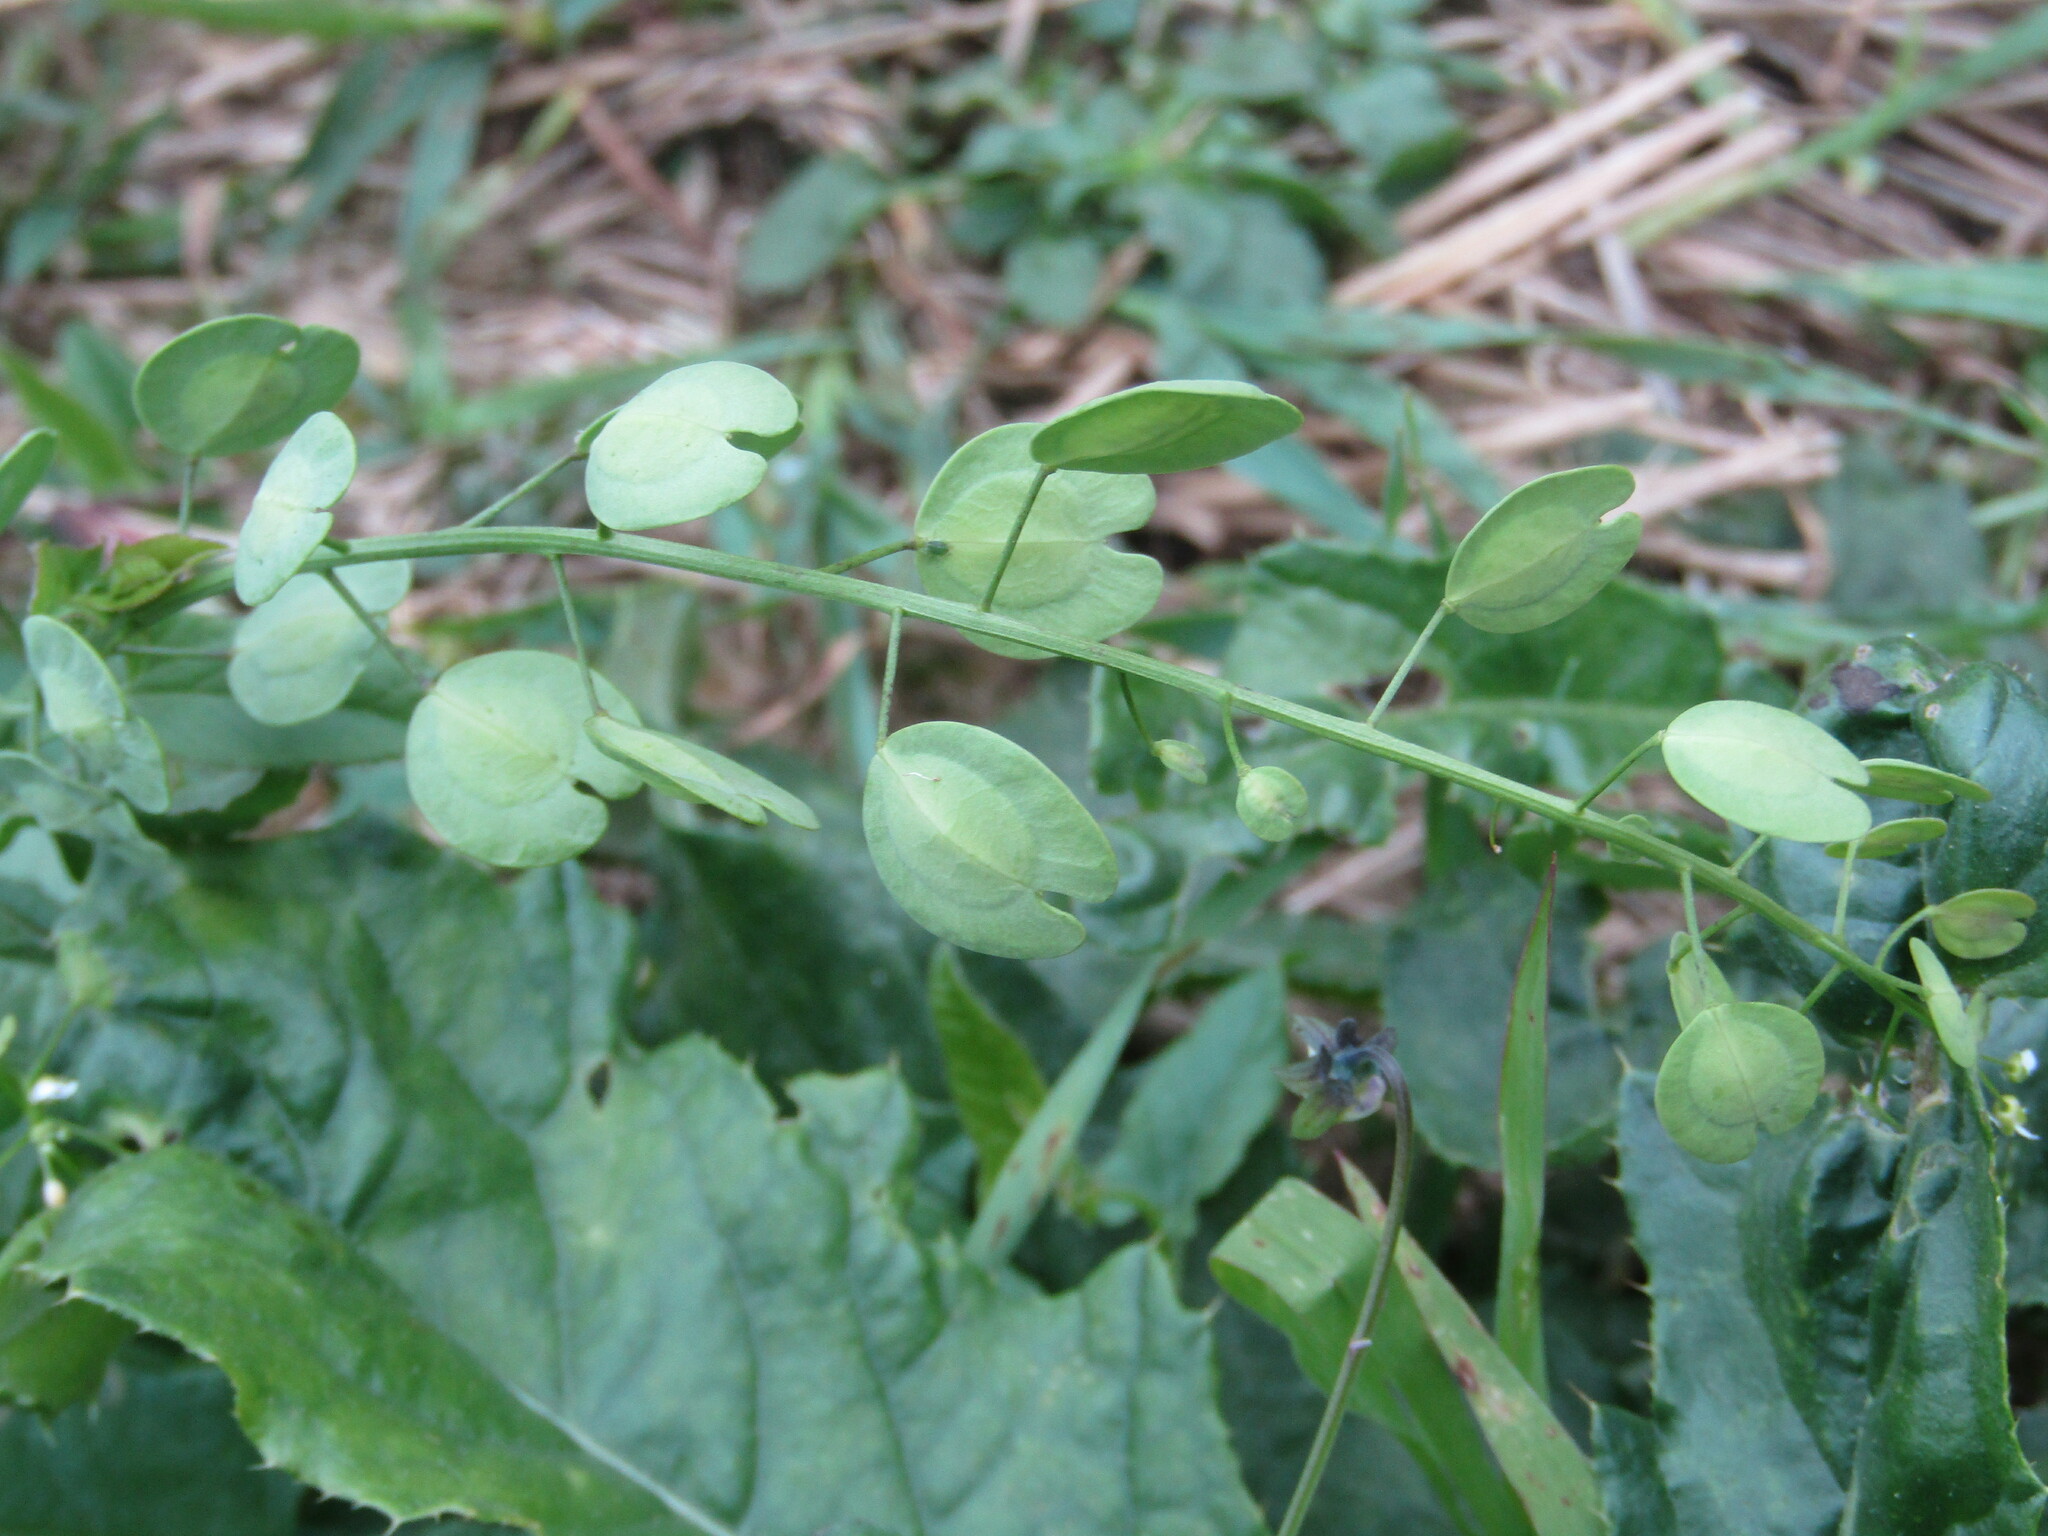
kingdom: Plantae
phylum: Tracheophyta
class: Magnoliopsida
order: Brassicales
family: Brassicaceae
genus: Thlaspi
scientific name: Thlaspi arvense
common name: Field pennycress
